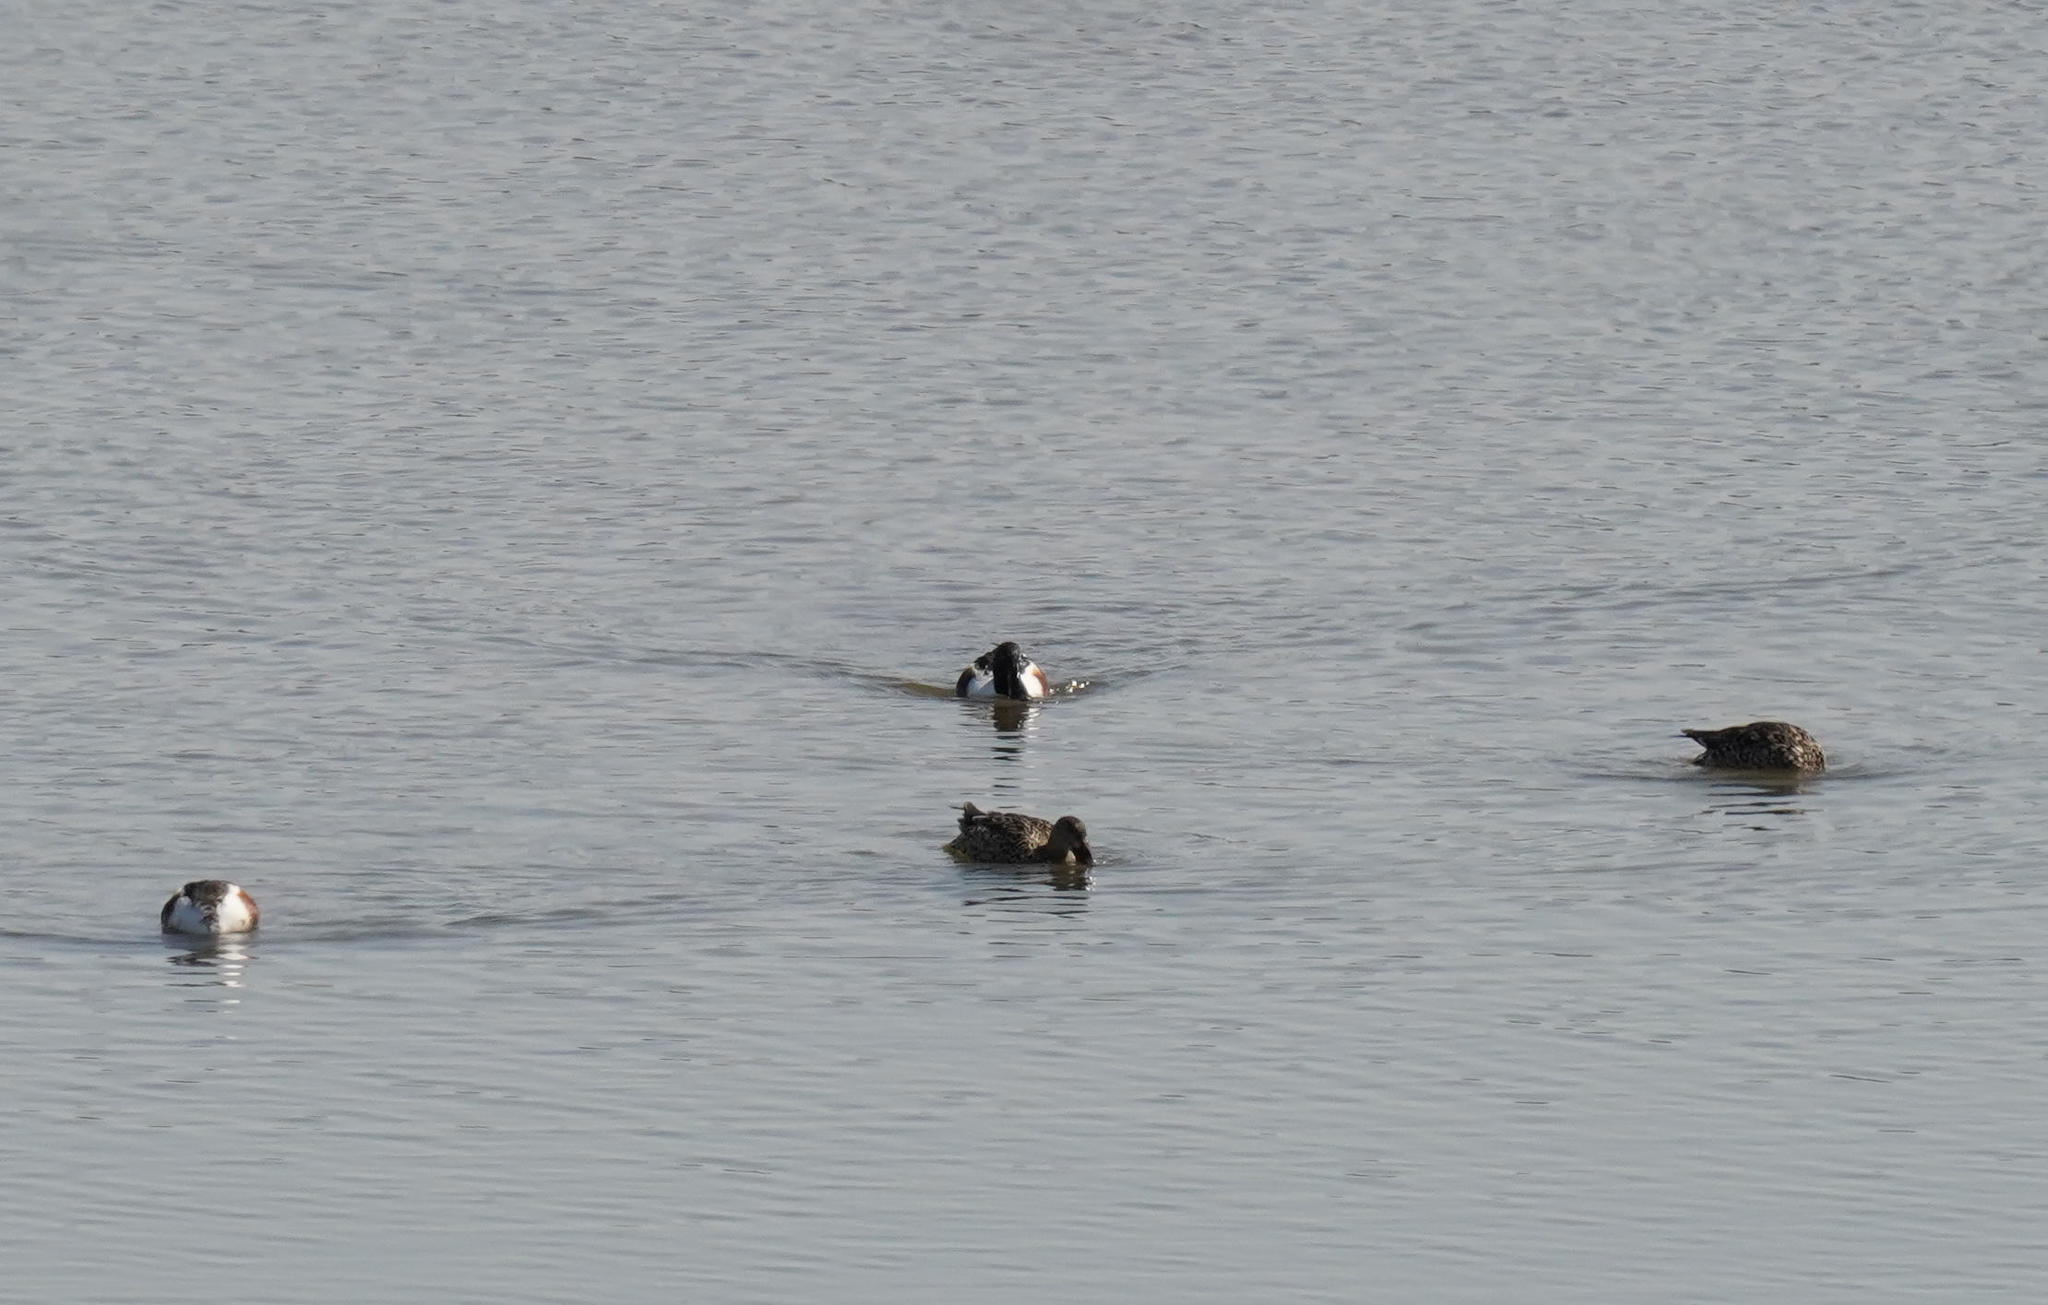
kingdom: Animalia
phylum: Chordata
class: Aves
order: Anseriformes
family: Anatidae
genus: Spatula
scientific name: Spatula clypeata
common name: Northern shoveler
